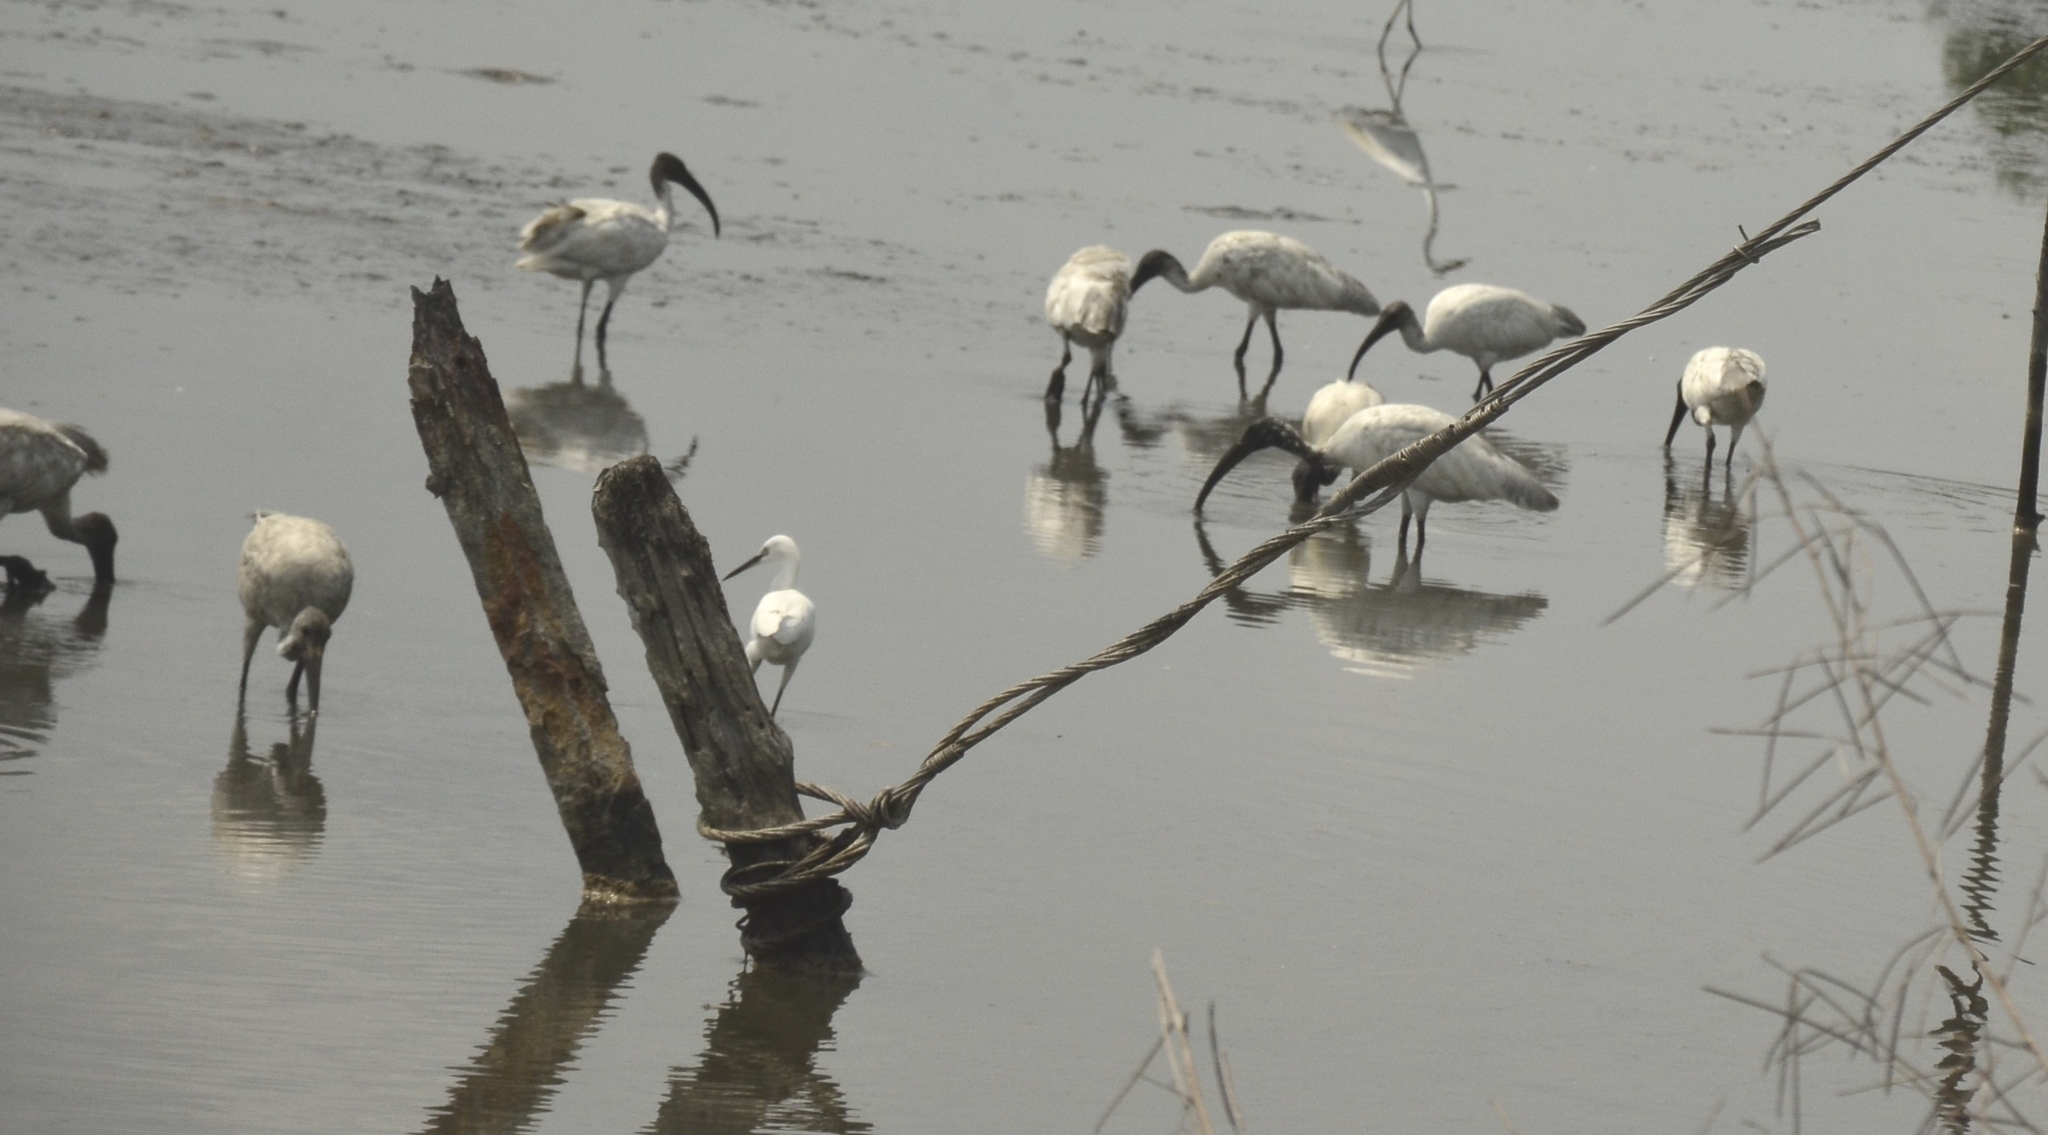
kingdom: Animalia
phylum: Chordata
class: Aves
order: Pelecaniformes
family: Threskiornithidae
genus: Threskiornis
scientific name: Threskiornis melanocephalus
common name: Black-headed ibis
